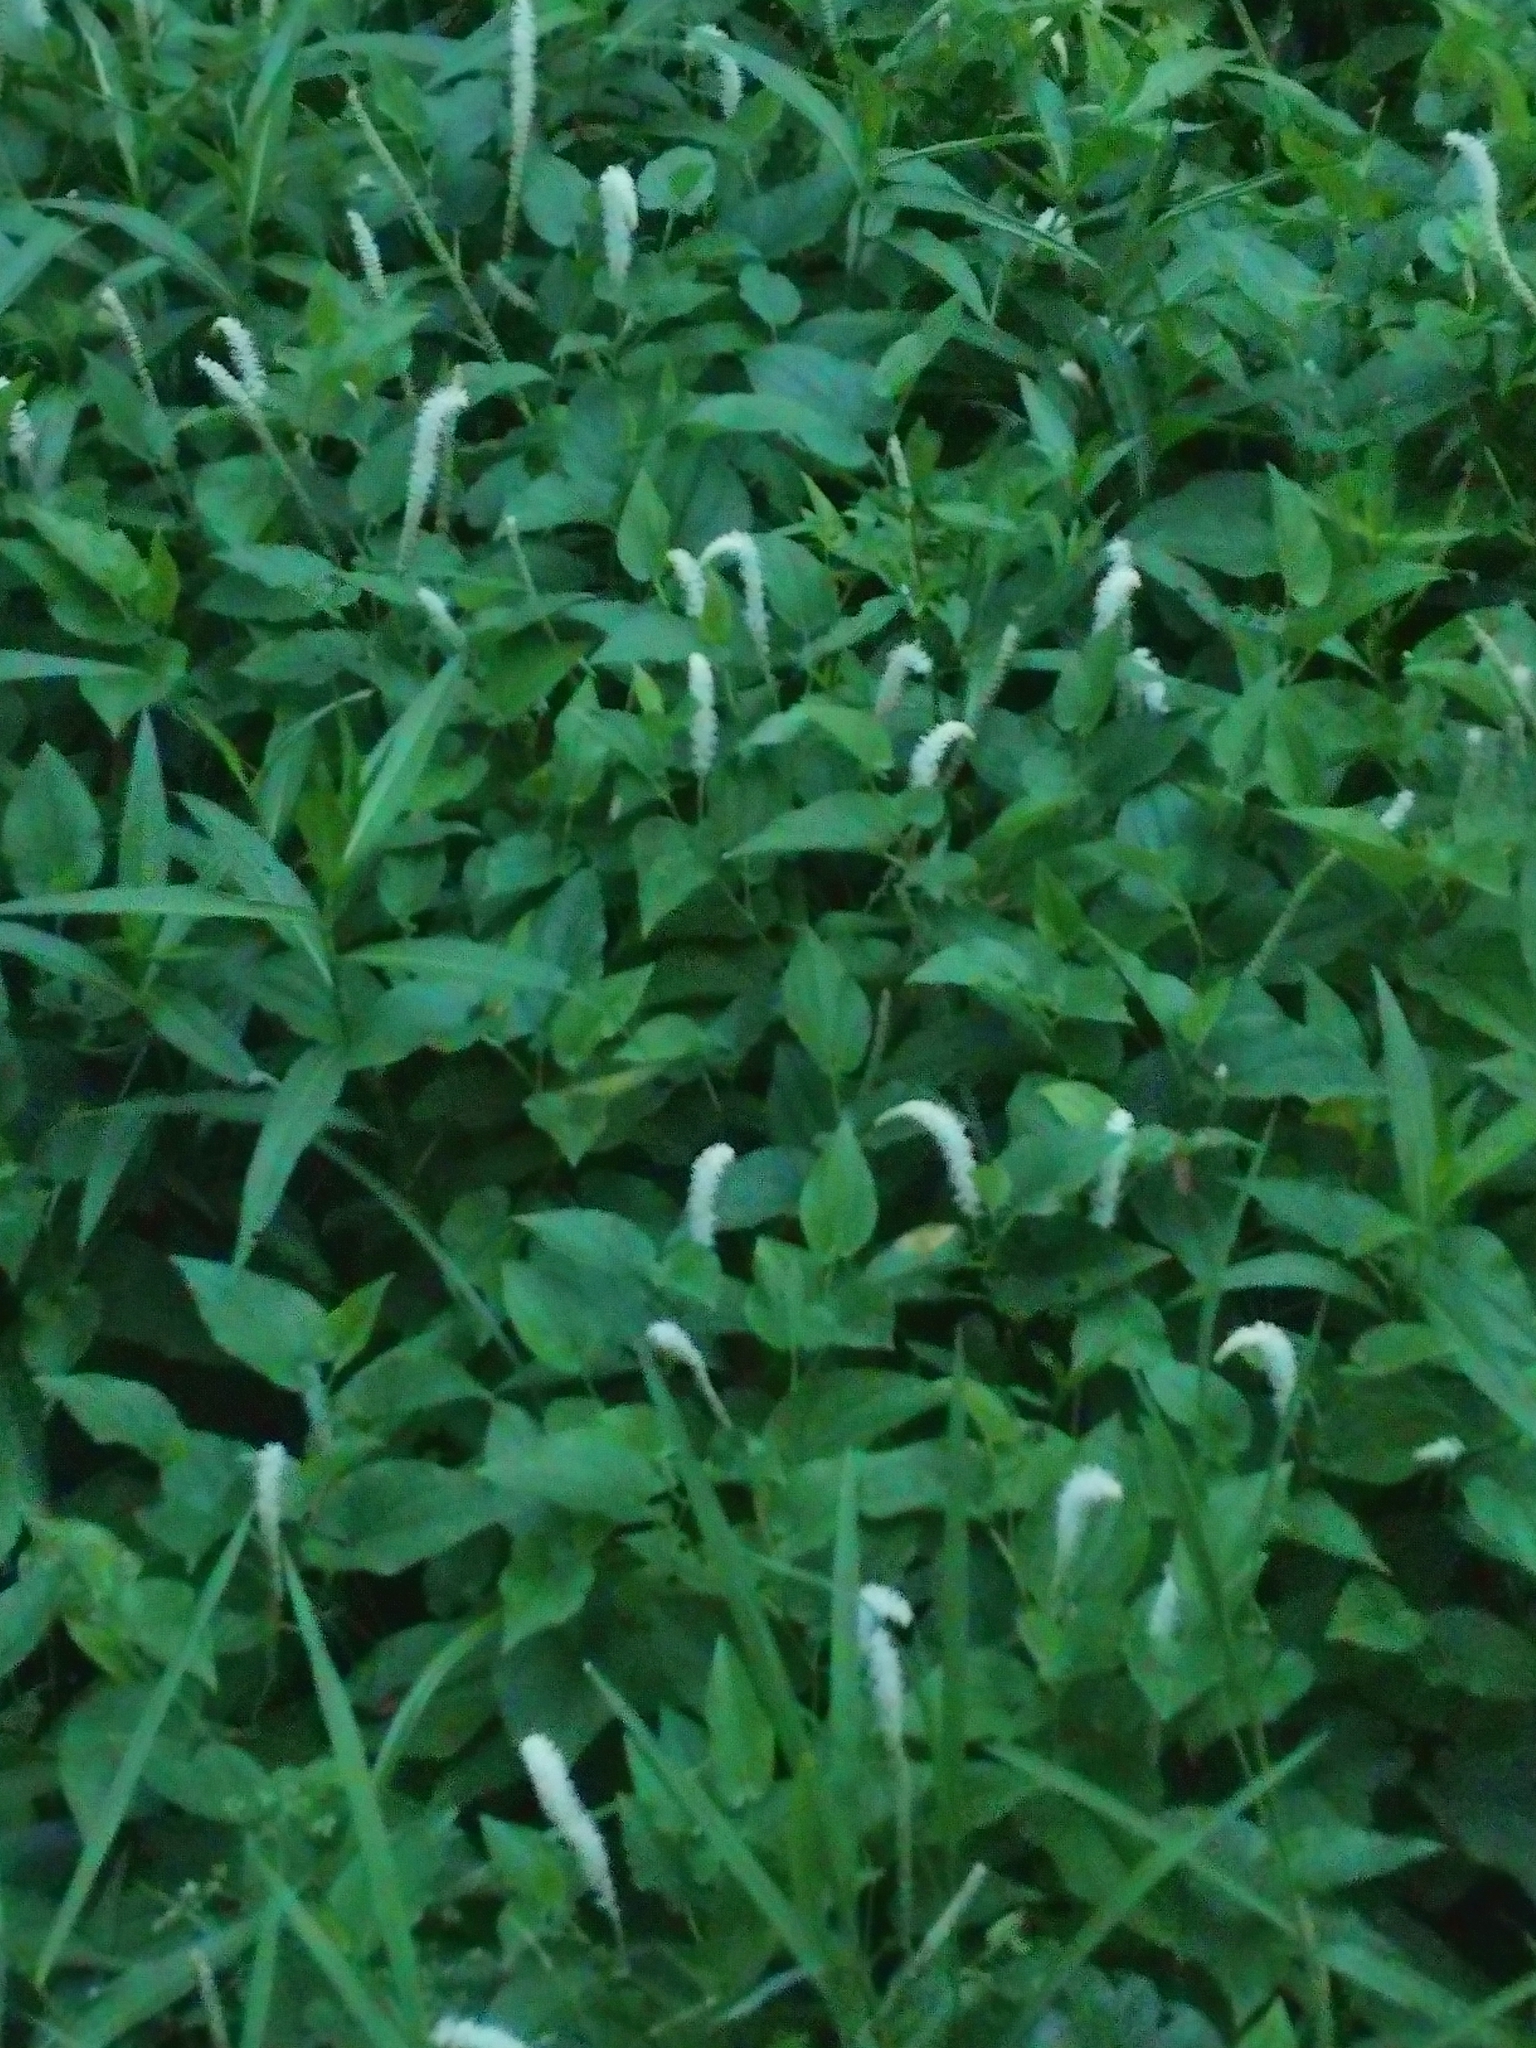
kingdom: Plantae
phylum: Tracheophyta
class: Magnoliopsida
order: Piperales
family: Saururaceae
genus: Saururus
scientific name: Saururus cernuus
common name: Lizard's-tail
